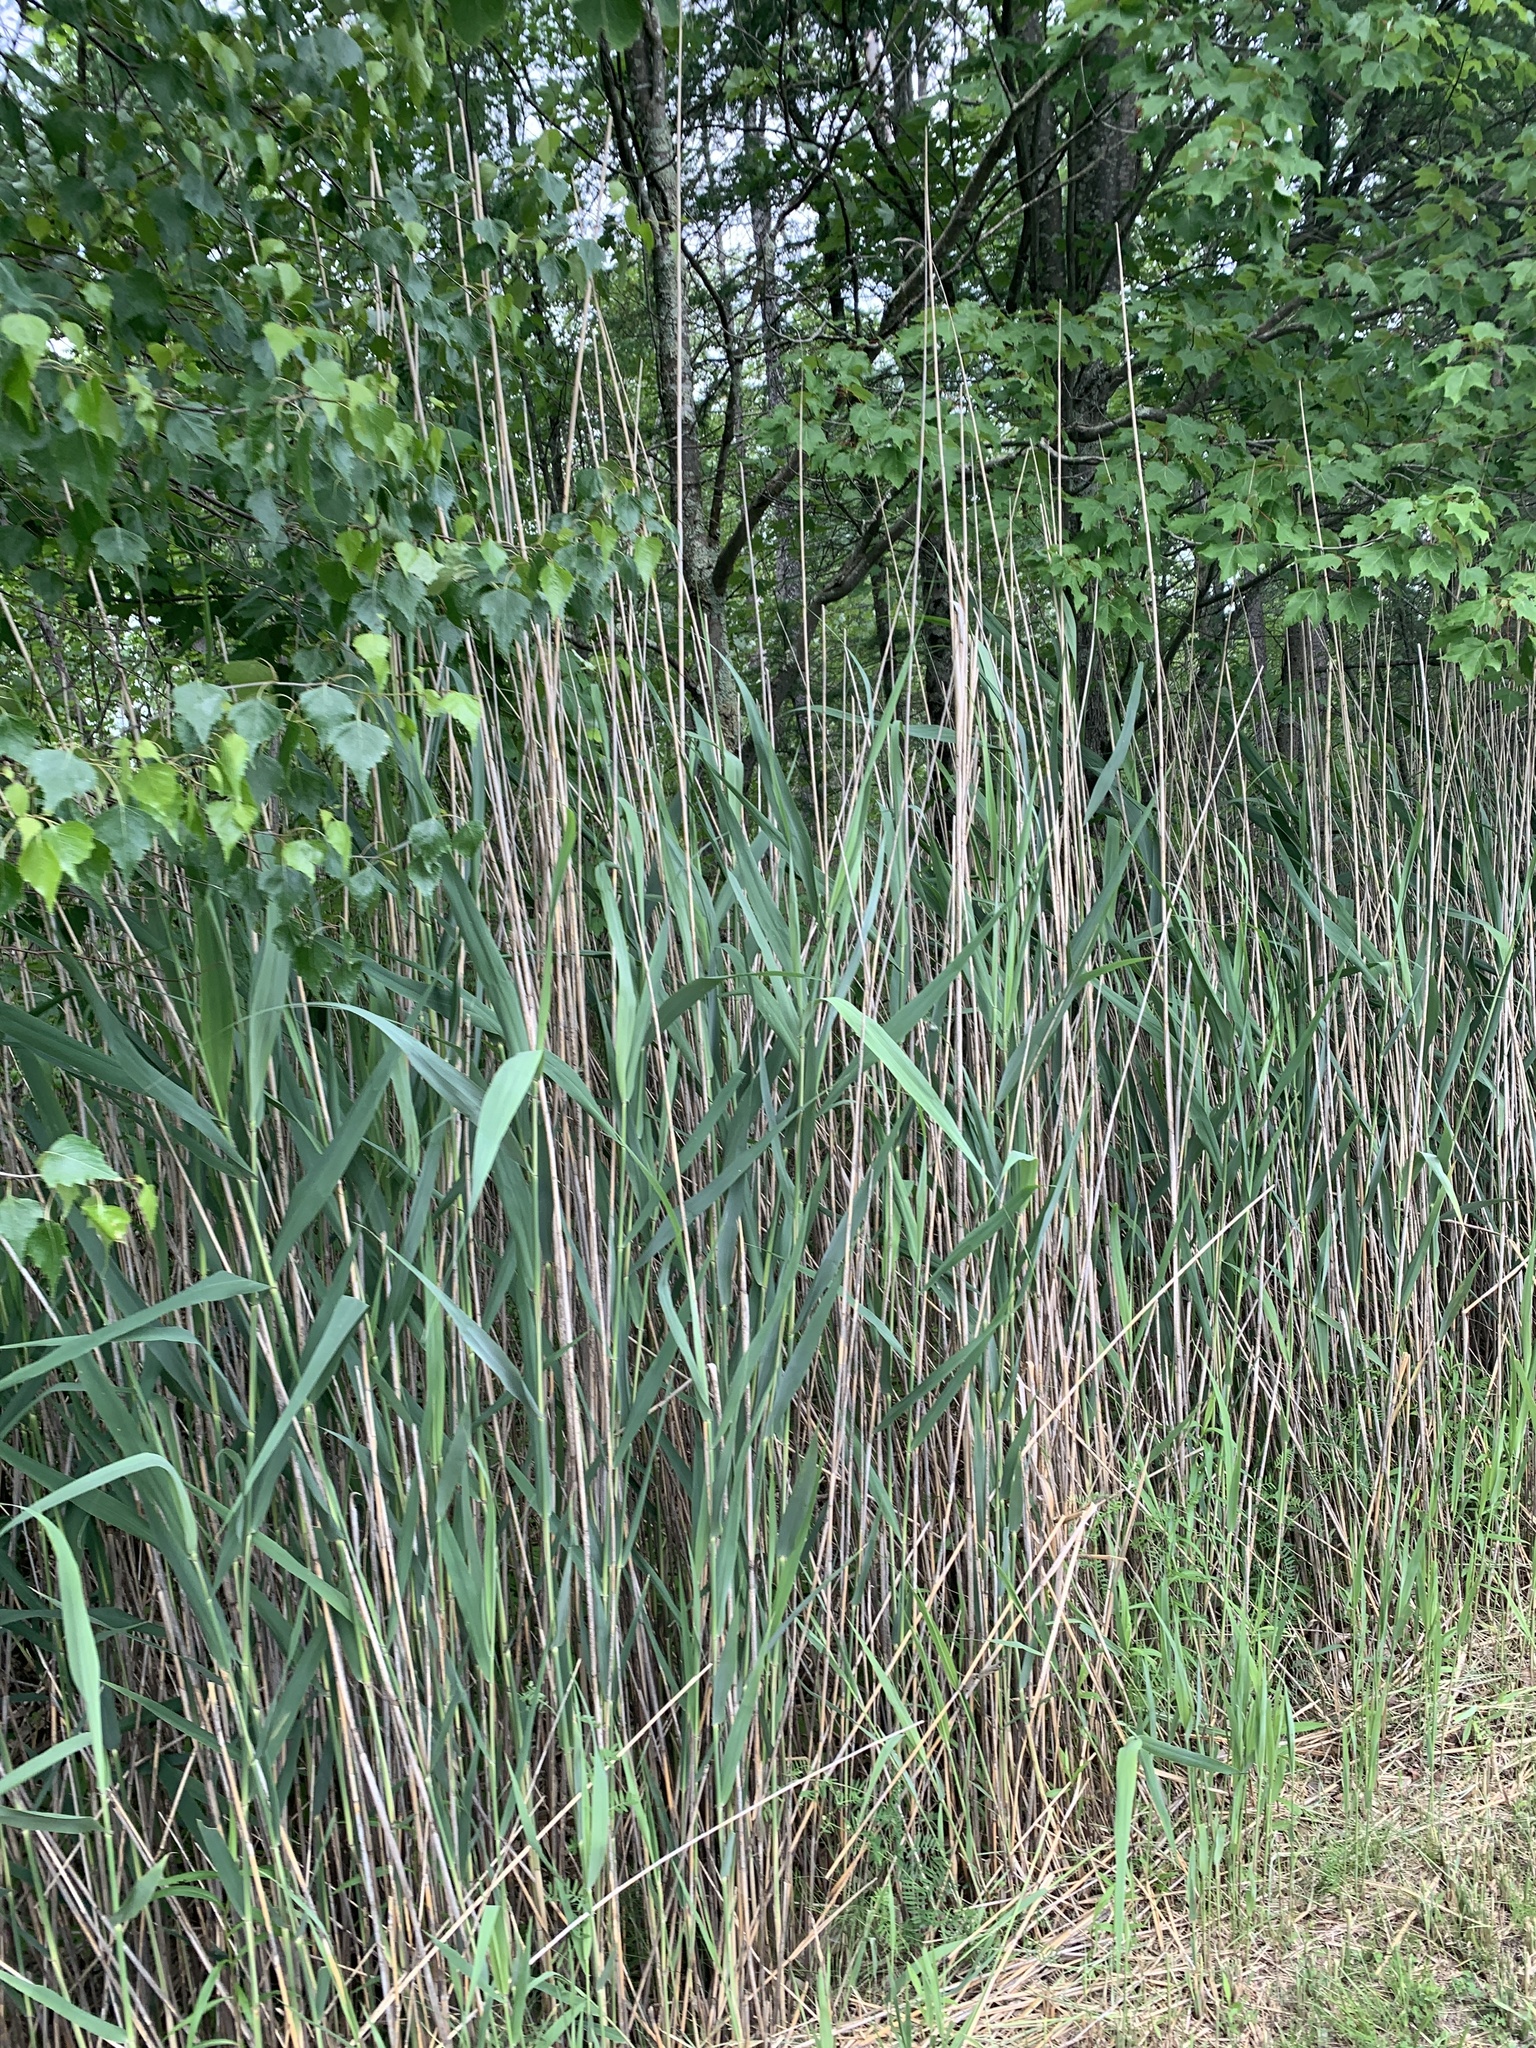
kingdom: Plantae
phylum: Tracheophyta
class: Liliopsida
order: Poales
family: Poaceae
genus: Phragmites
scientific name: Phragmites australis
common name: Common reed
